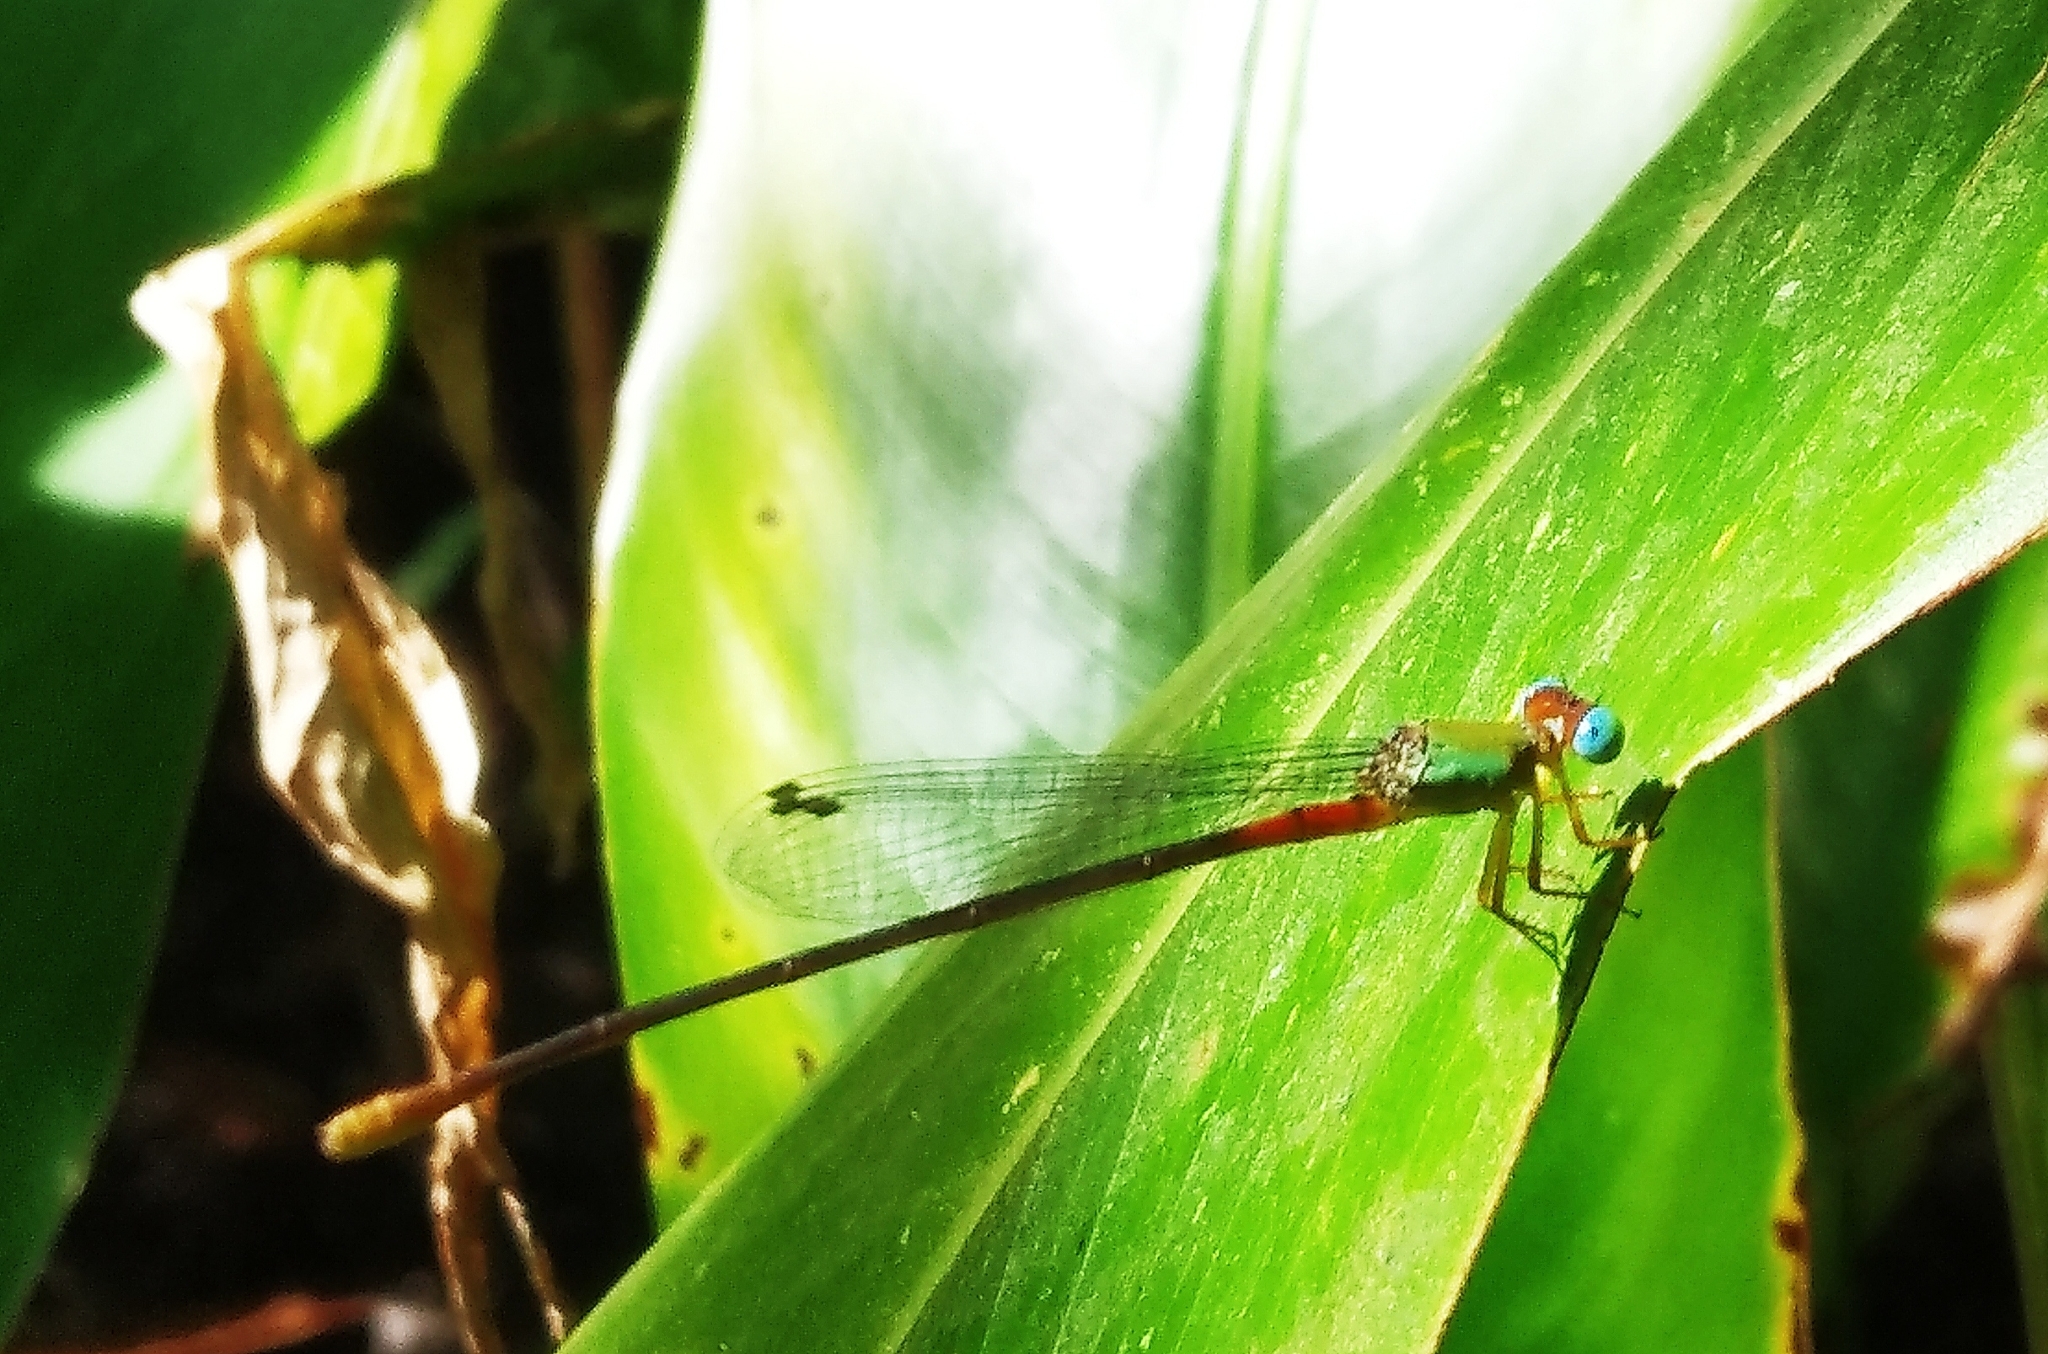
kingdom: Animalia
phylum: Arthropoda
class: Insecta
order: Odonata
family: Coenagrionidae
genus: Ceriagrion
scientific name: Ceriagrion cerinorubellum
